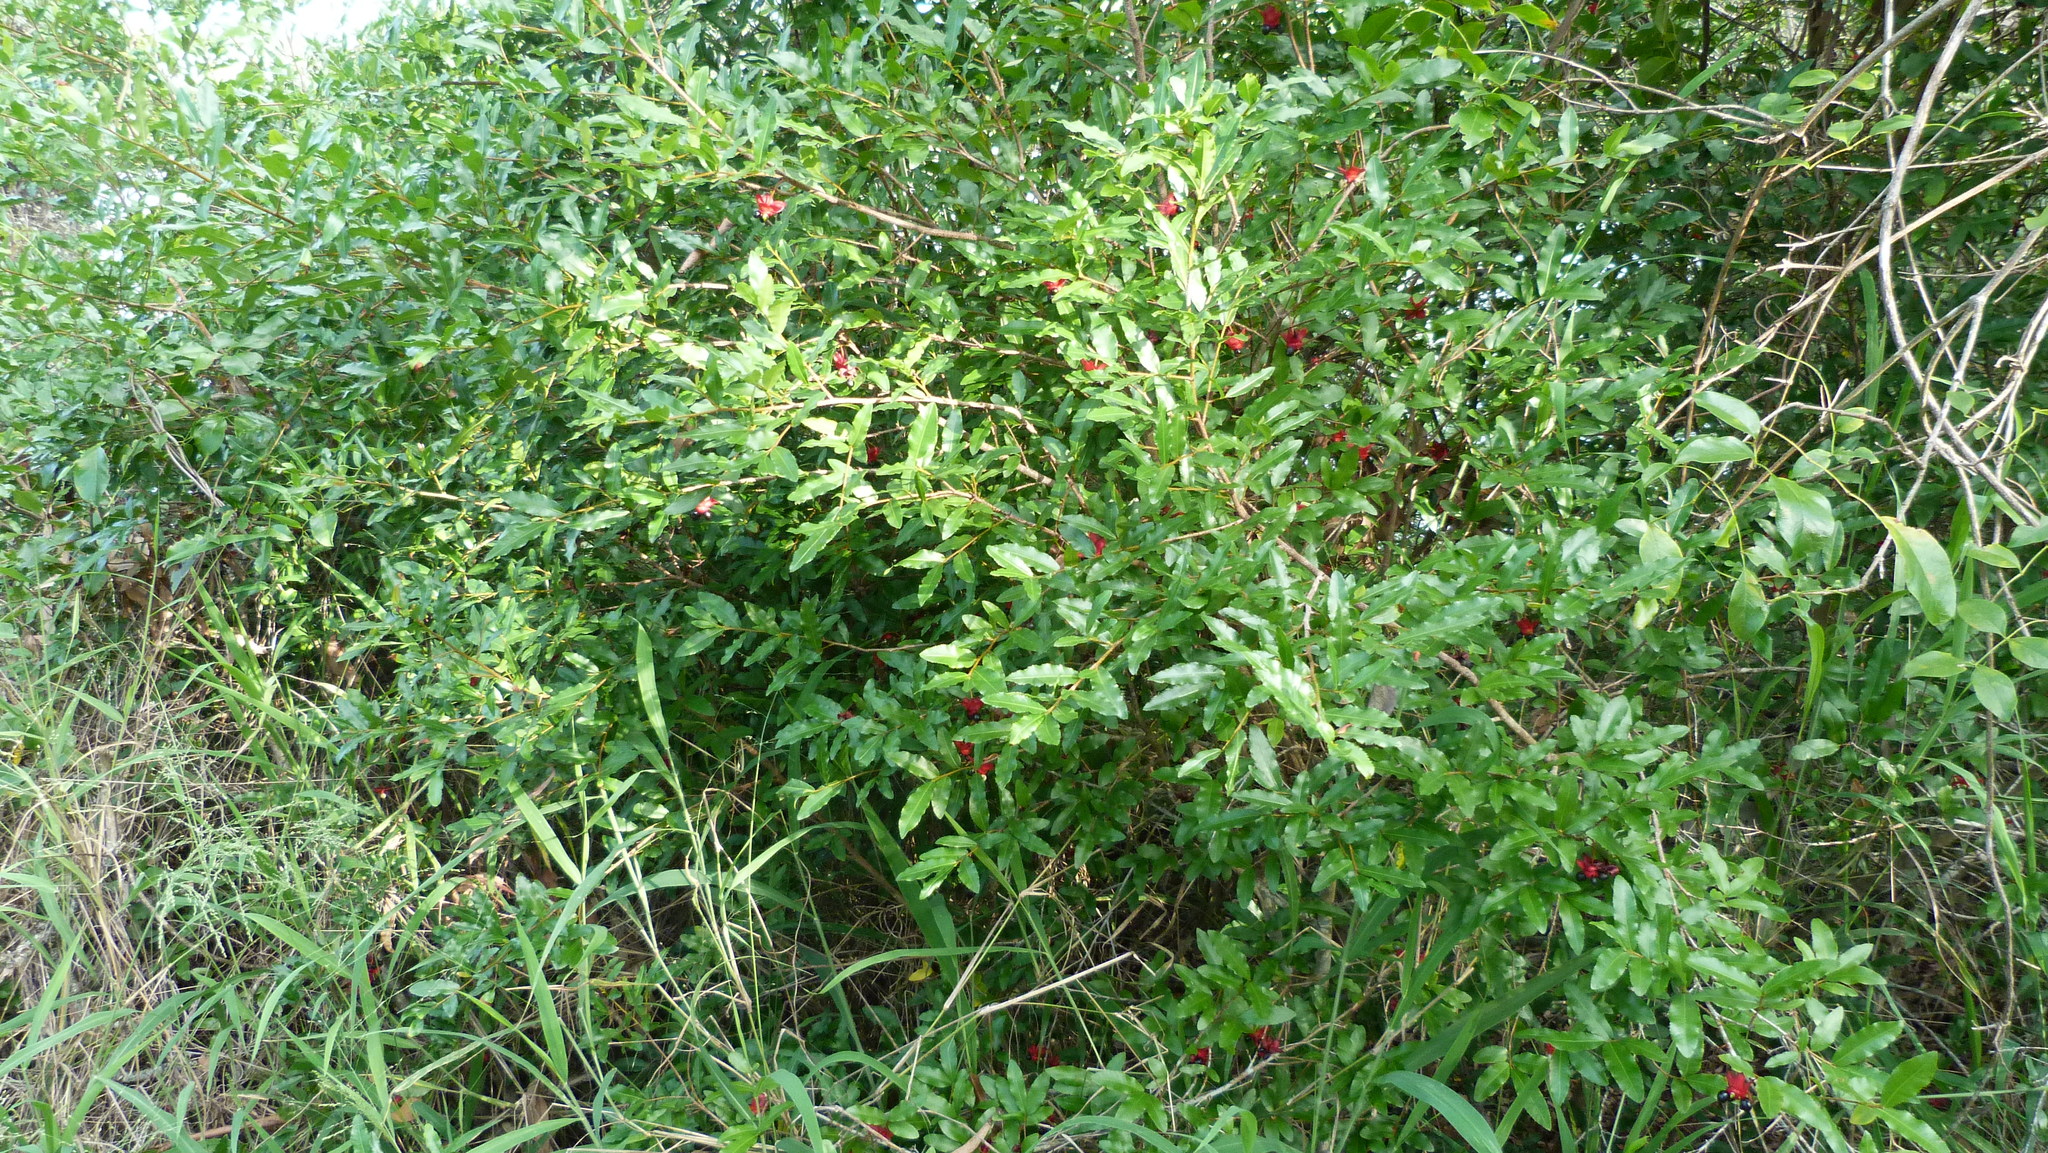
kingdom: Plantae
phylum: Tracheophyta
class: Magnoliopsida
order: Malpighiales
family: Ochnaceae
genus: Ochna
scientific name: Ochna serrulata
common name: Mickey mouse plant
